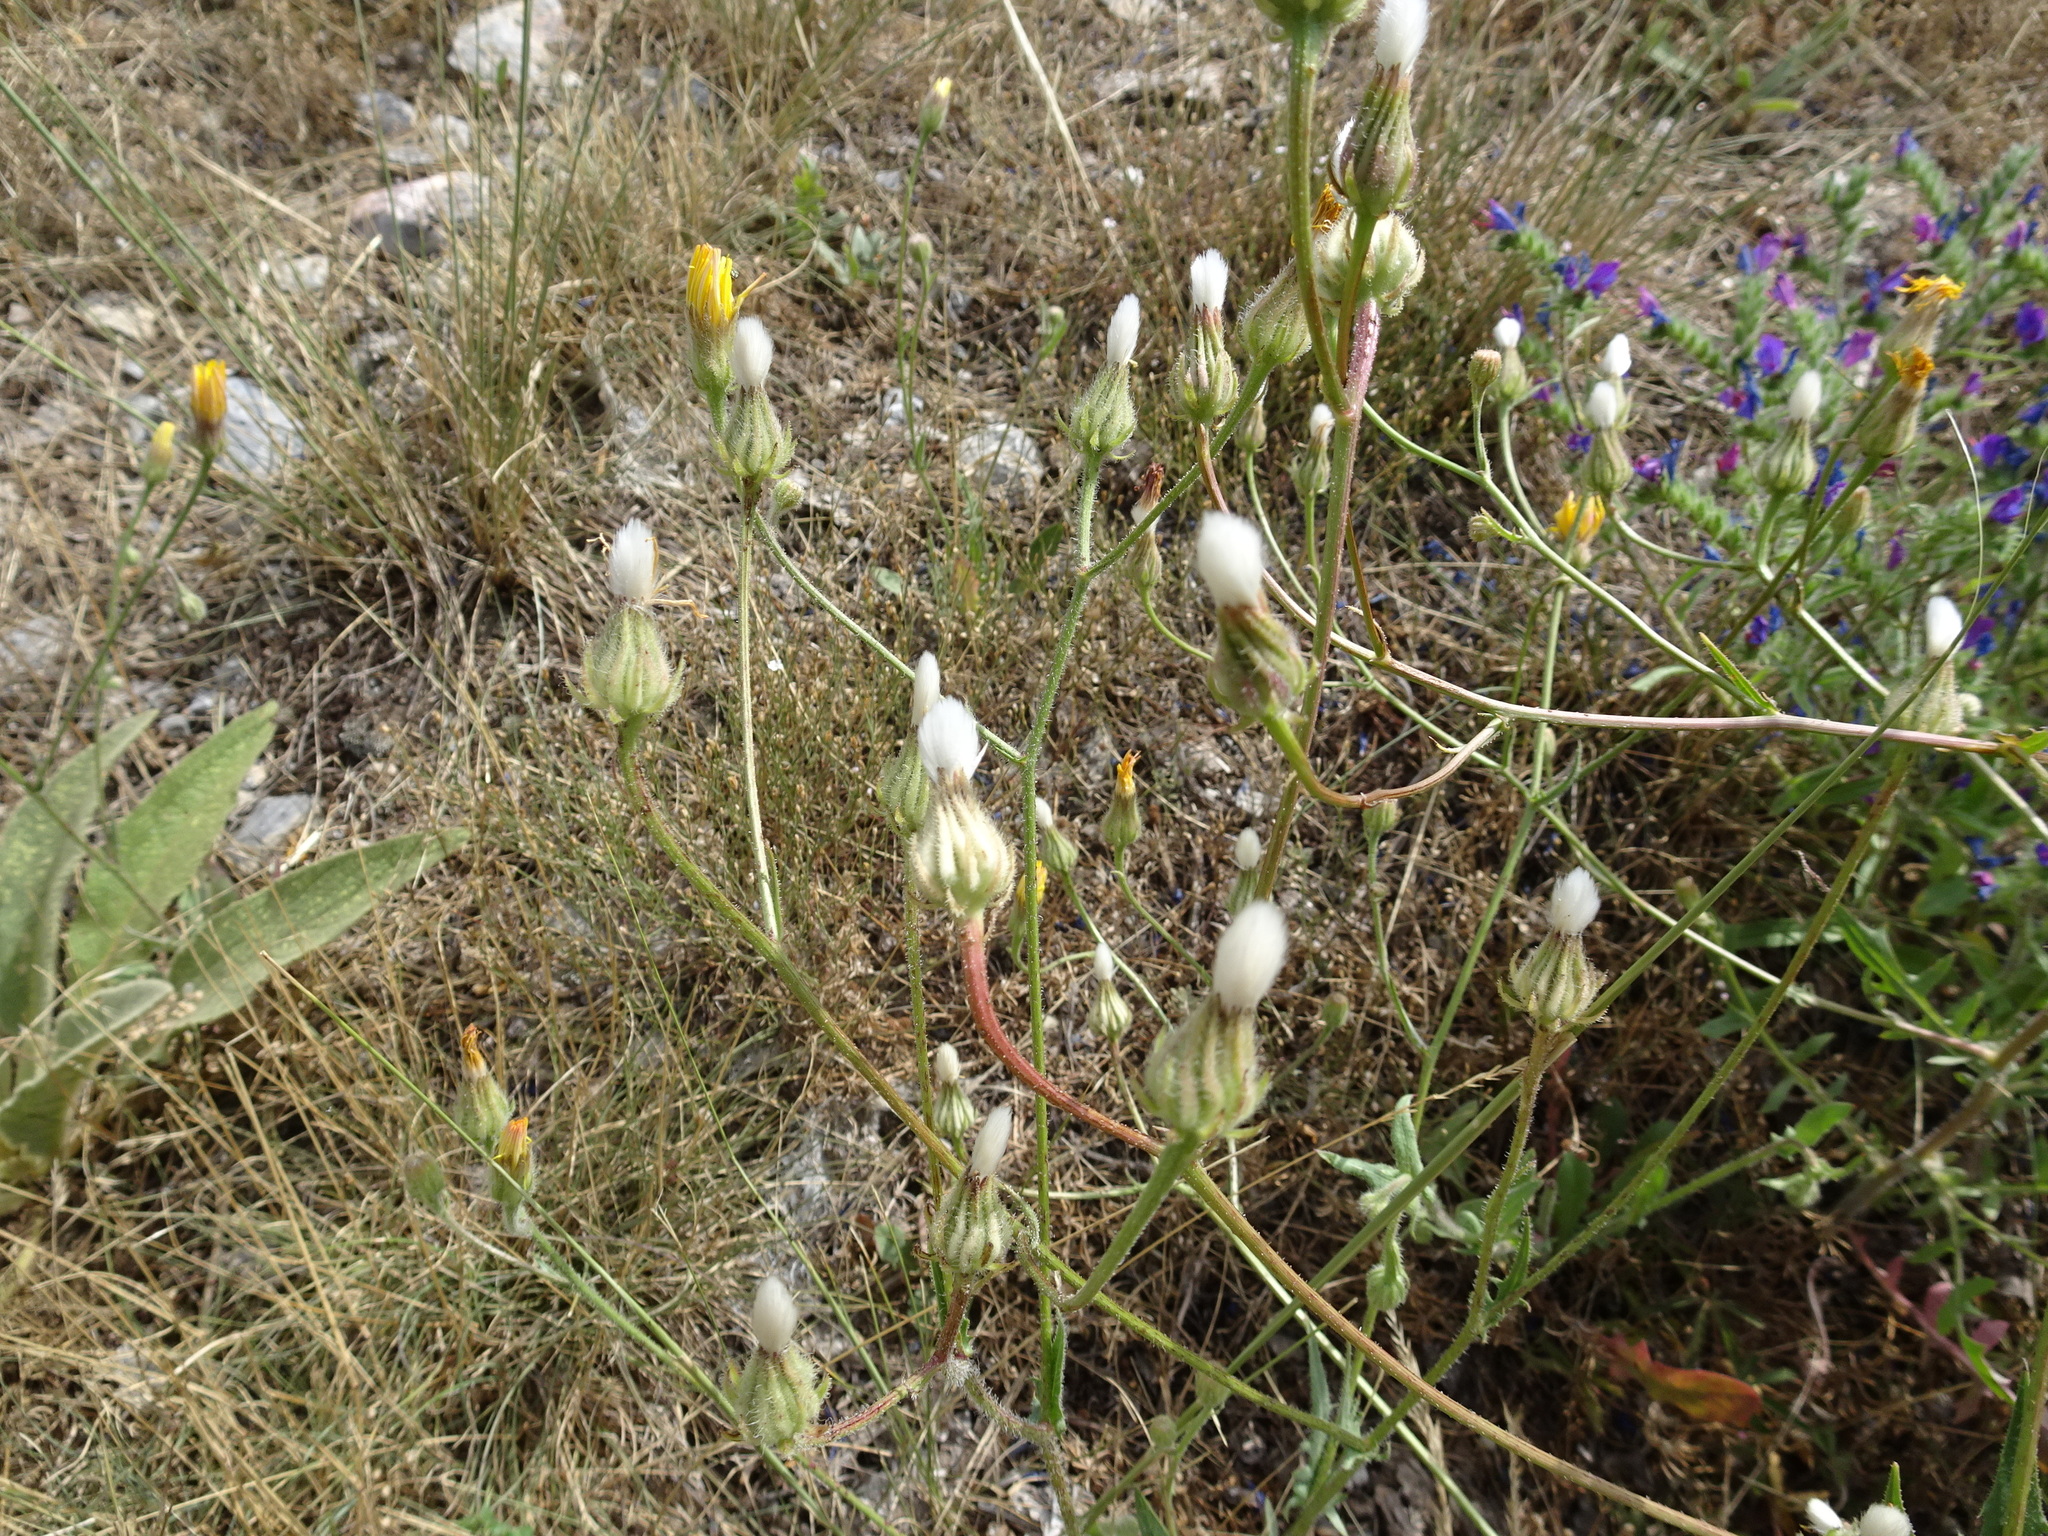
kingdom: Plantae
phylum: Tracheophyta
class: Magnoliopsida
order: Asterales
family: Asteraceae
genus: Crepis
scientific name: Crepis foetida
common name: Stinking hawk's-beard
